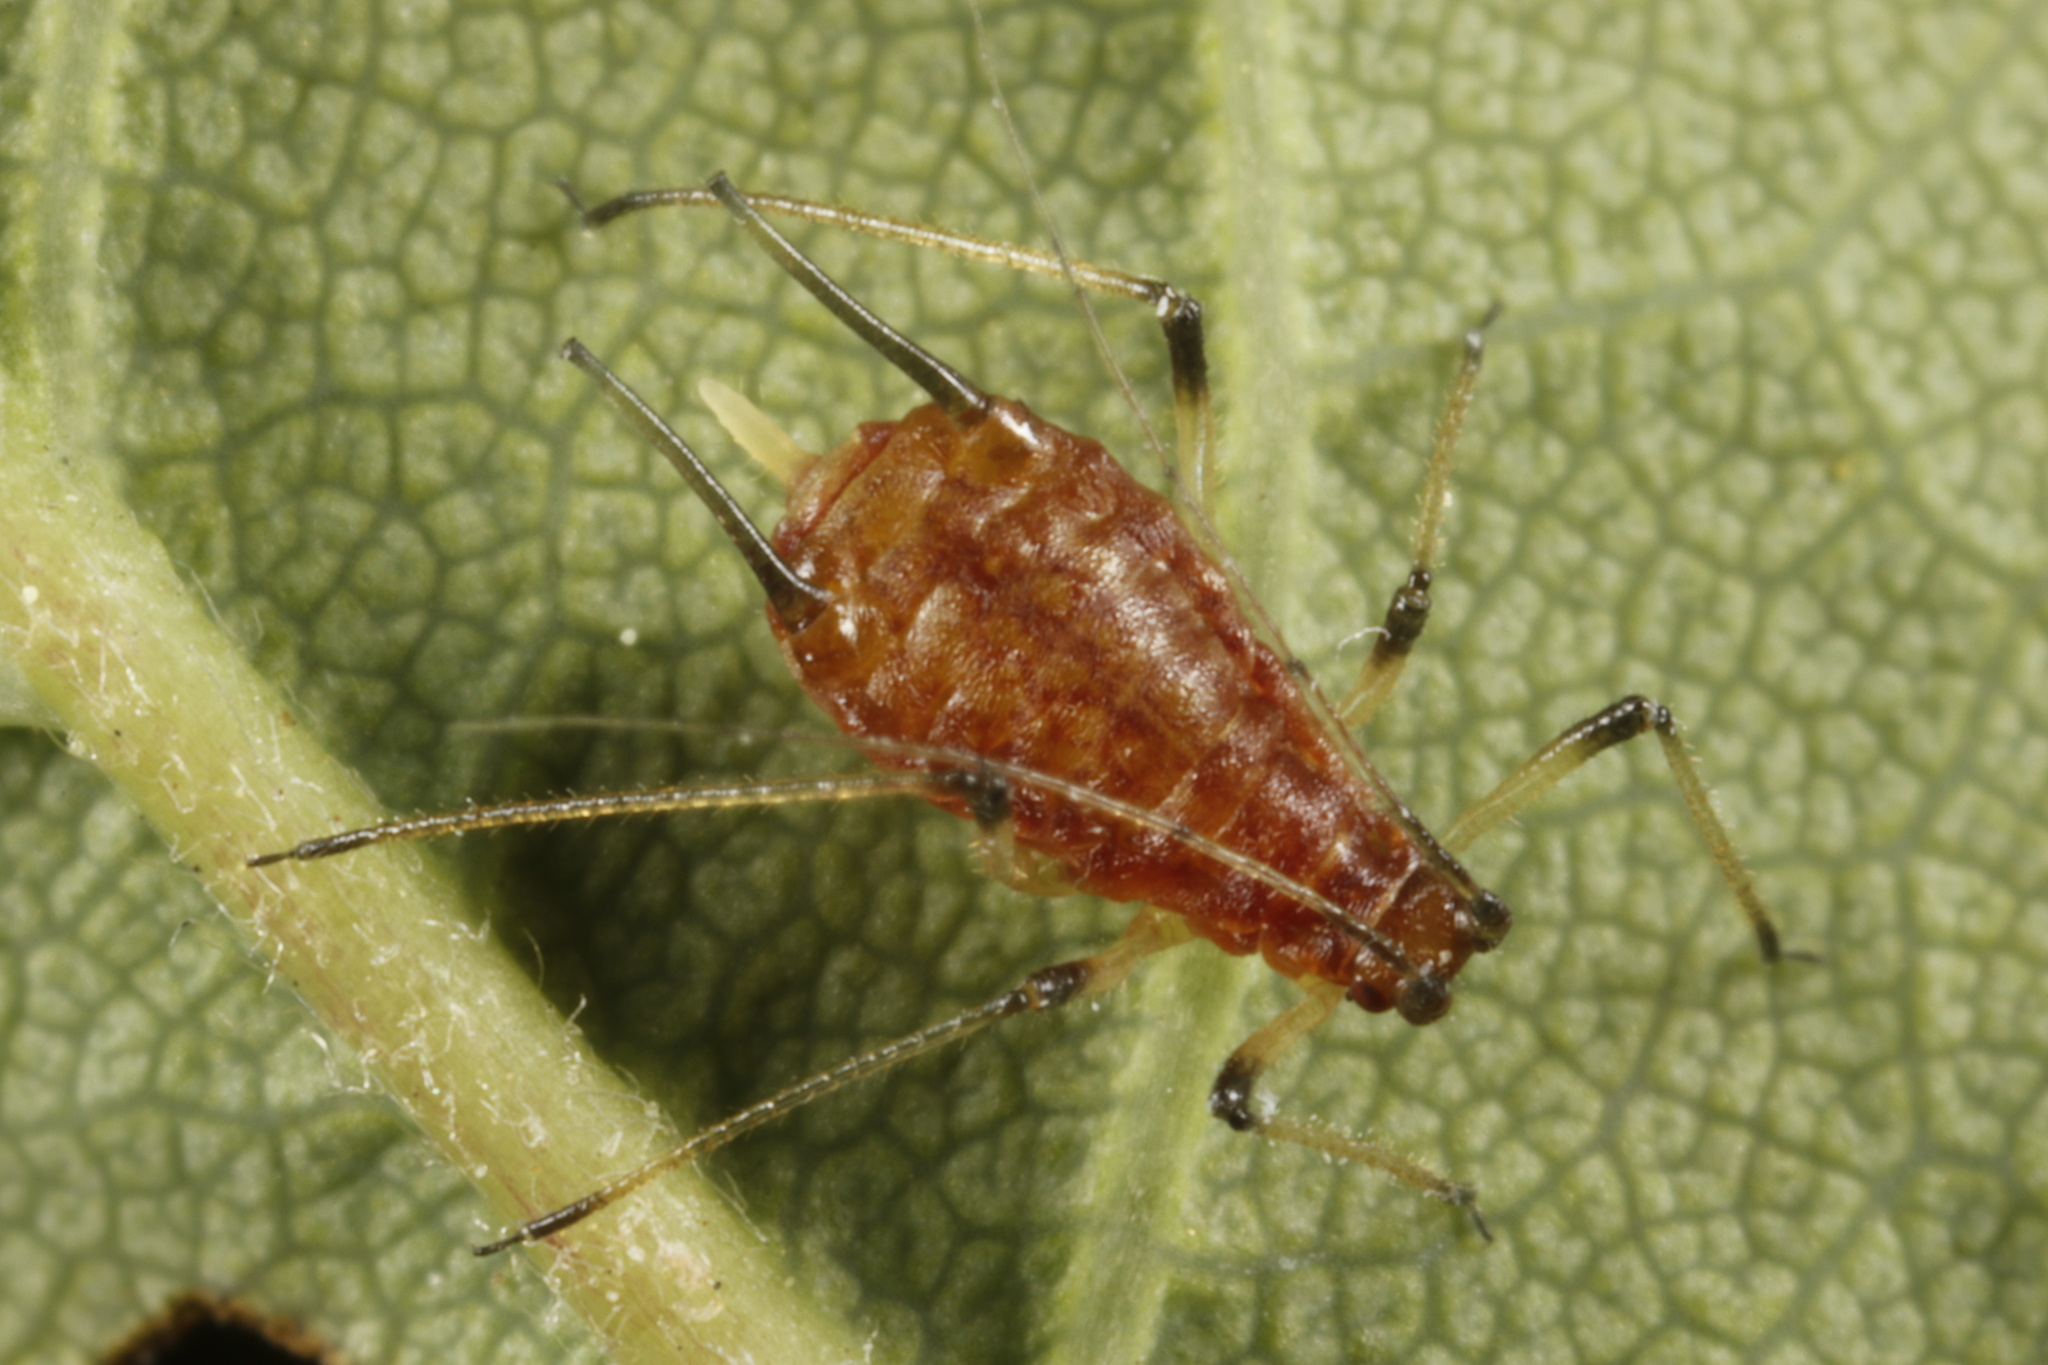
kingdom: Animalia
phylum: Arthropoda
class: Insecta
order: Hemiptera
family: Aphididae
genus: Macrosiphum
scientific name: Macrosiphum rosae
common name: Rose aphid
